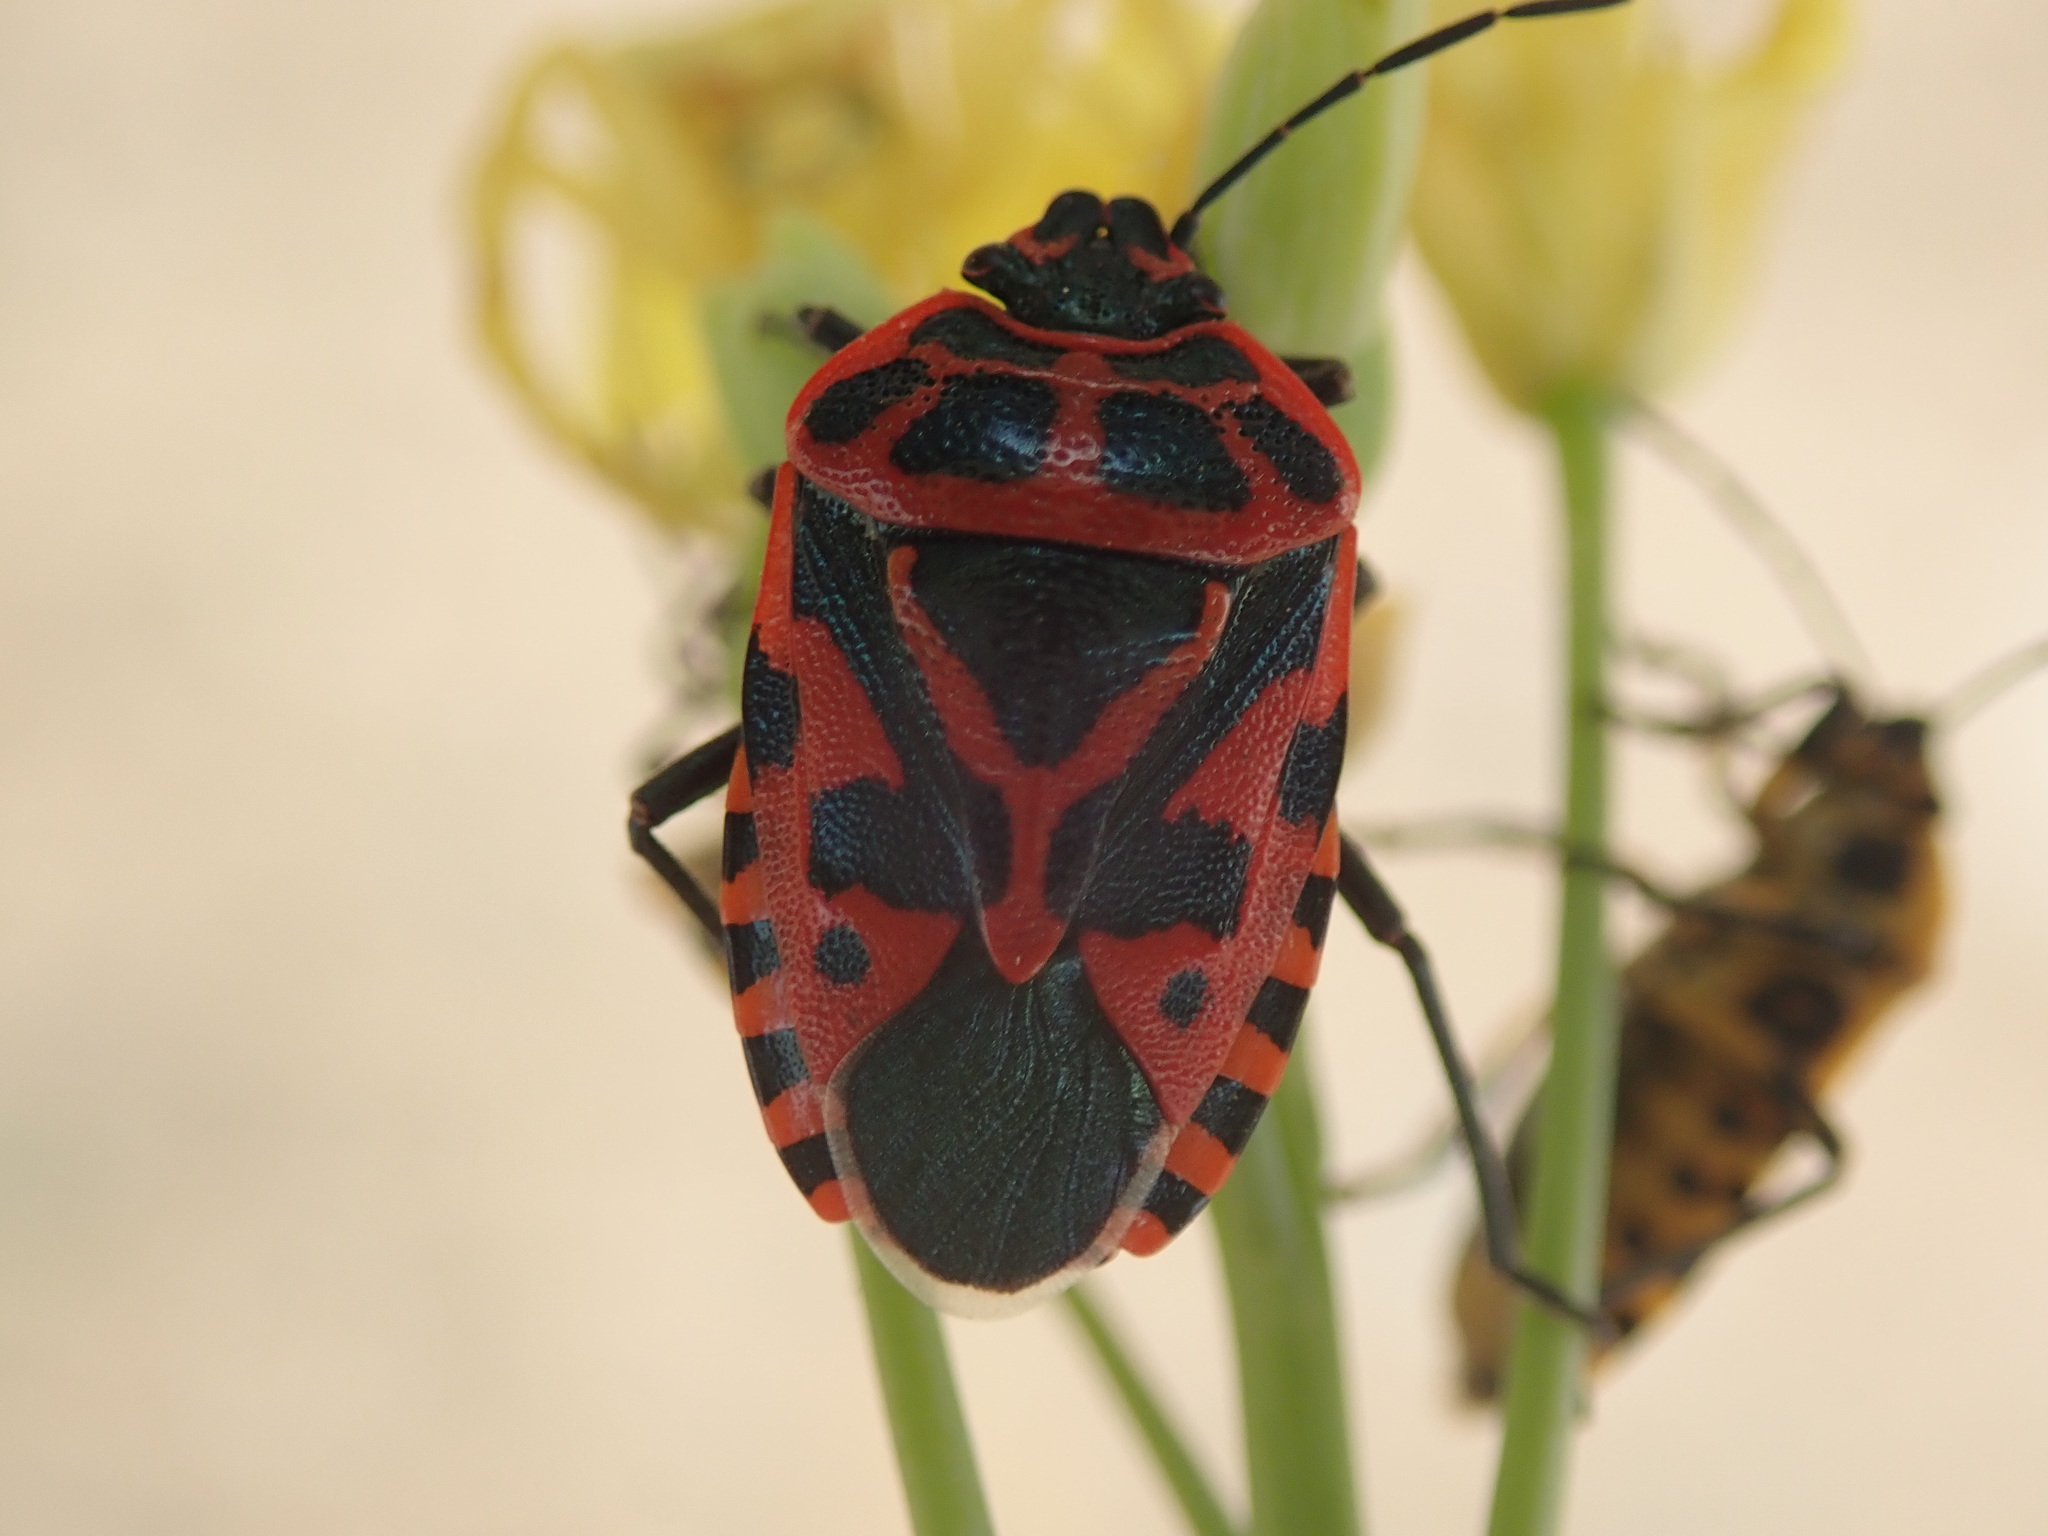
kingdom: Animalia
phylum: Arthropoda
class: Insecta
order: Hemiptera
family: Pentatomidae
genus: Eurydema
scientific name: Eurydema ventralis
